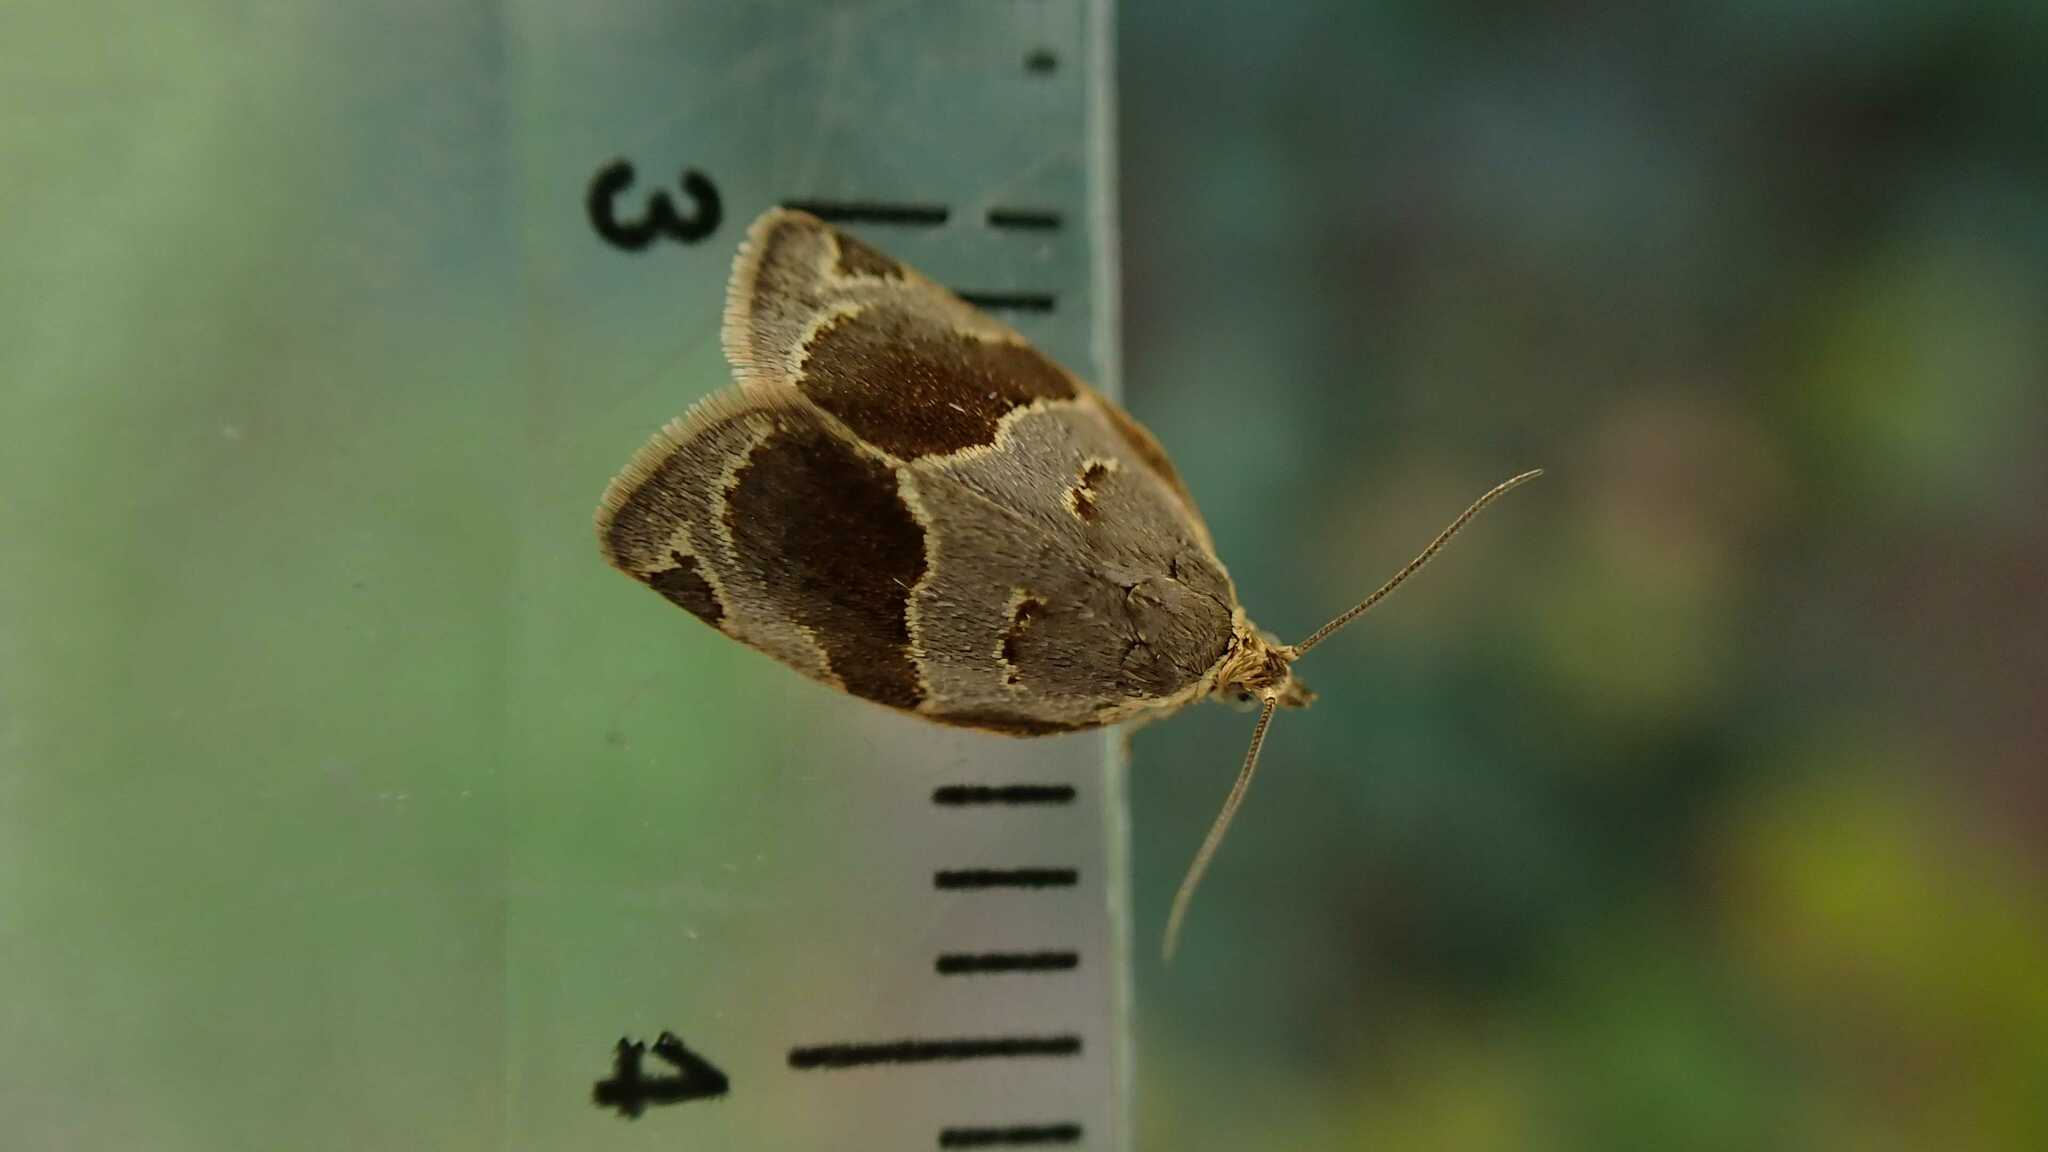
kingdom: Animalia
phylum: Arthropoda
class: Insecta
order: Lepidoptera
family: Tortricidae
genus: Clepsis
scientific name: Clepsis dumicolana
